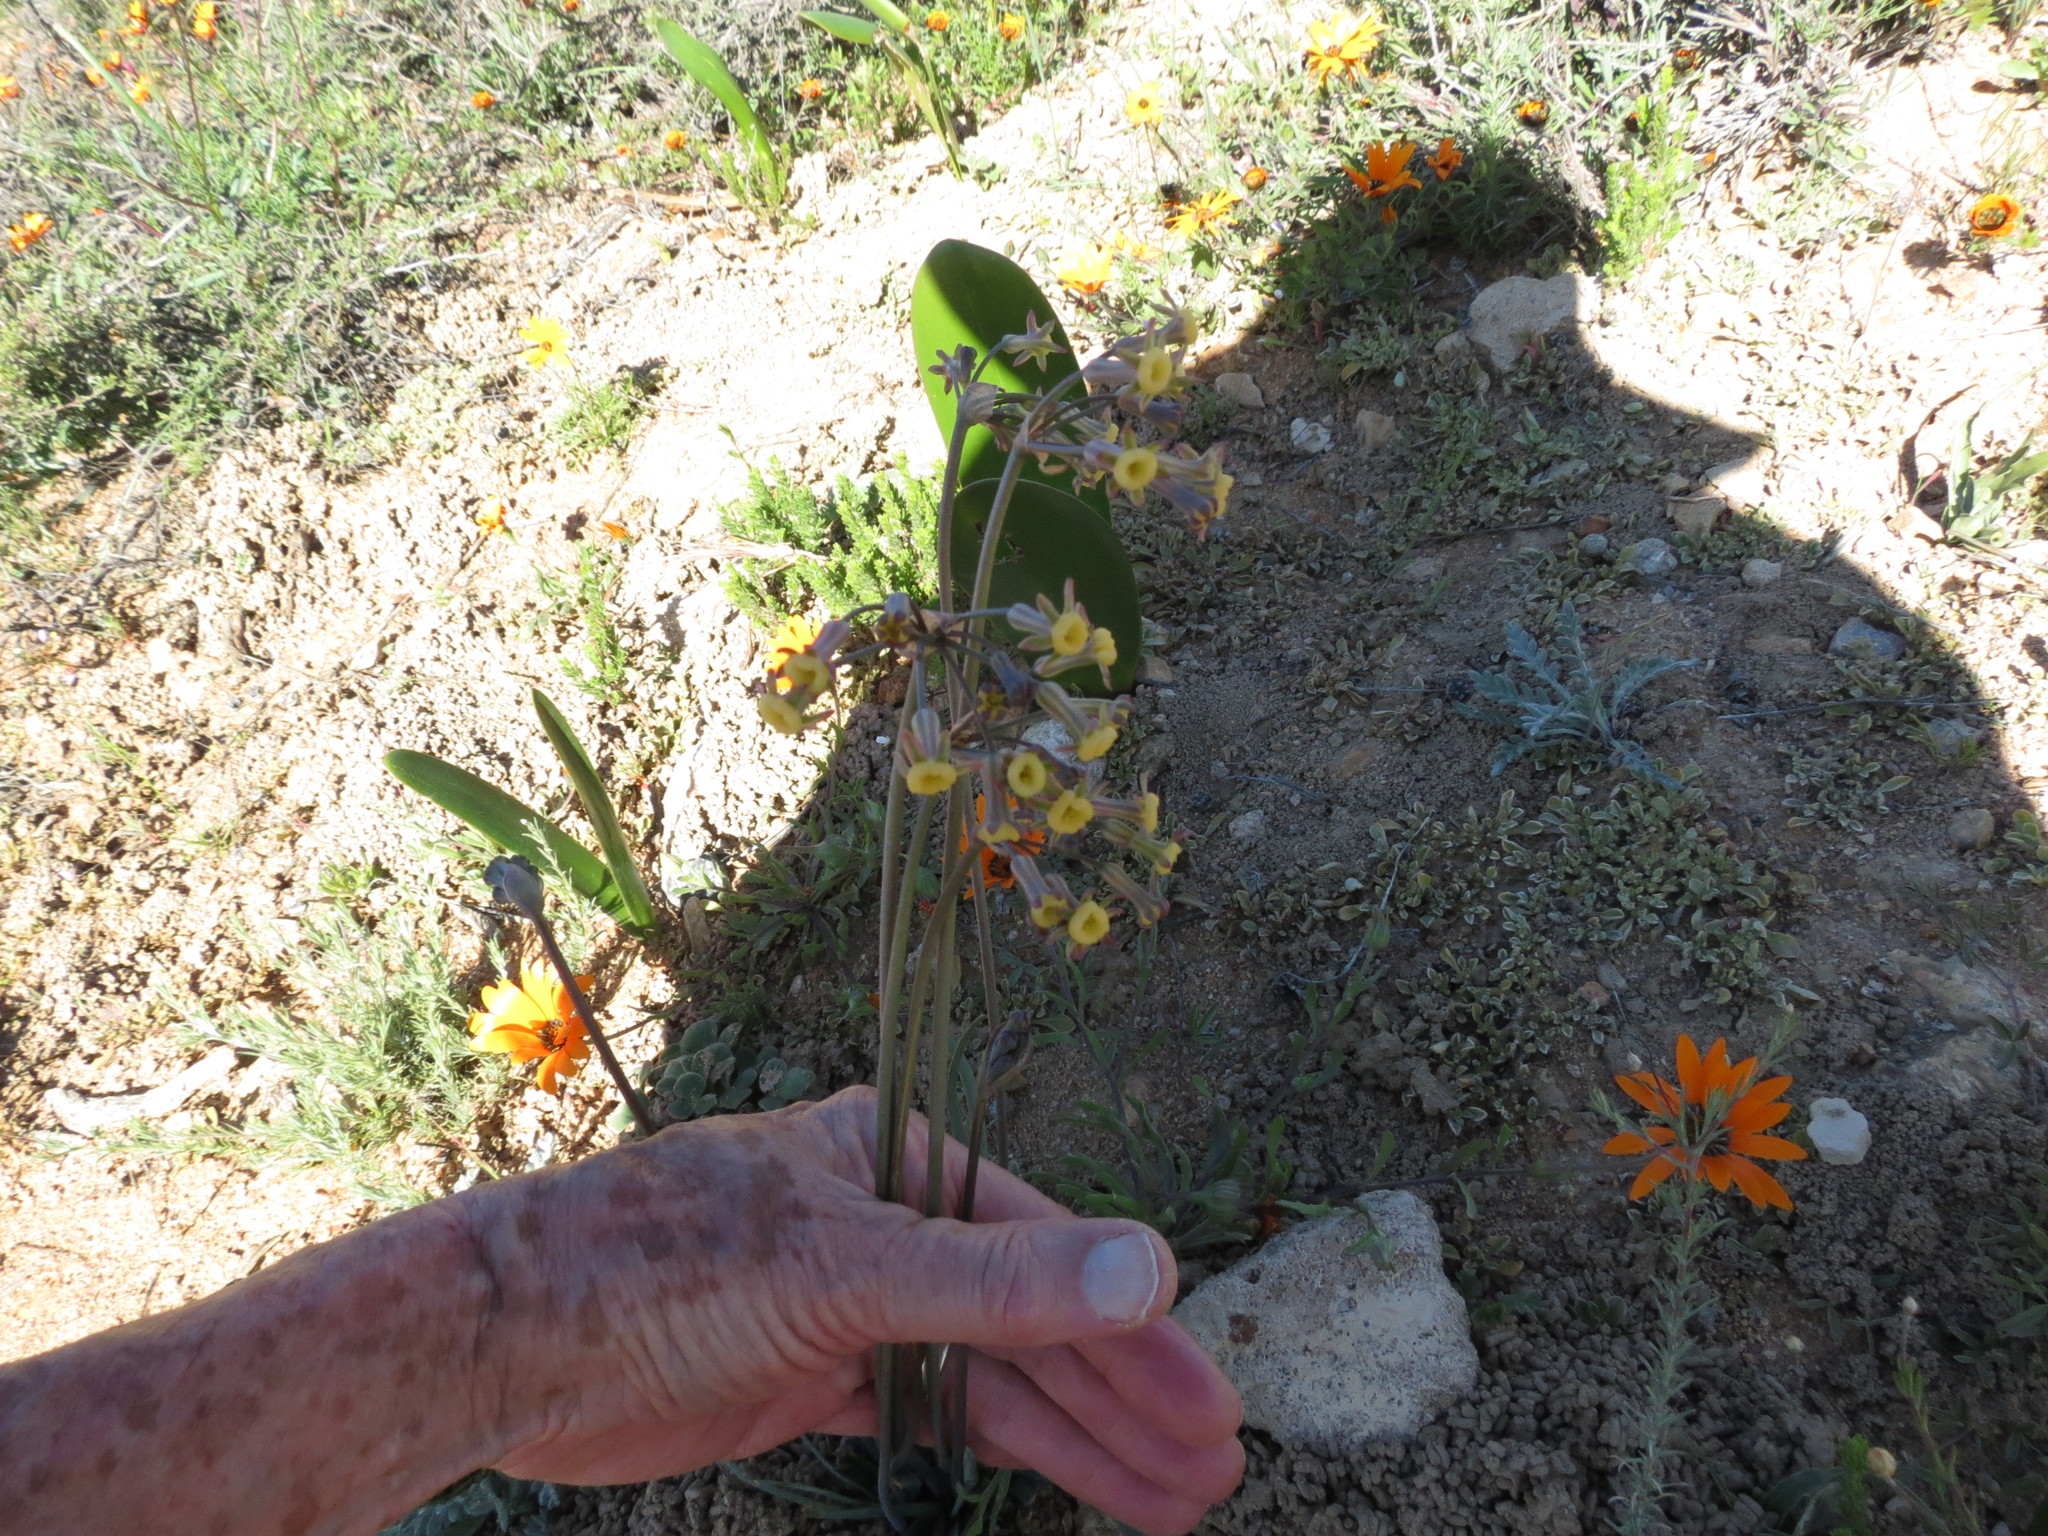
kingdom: Plantae
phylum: Tracheophyta
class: Liliopsida
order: Asparagales
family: Amaryllidaceae
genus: Tulbaghia
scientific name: Tulbaghia dregeana
